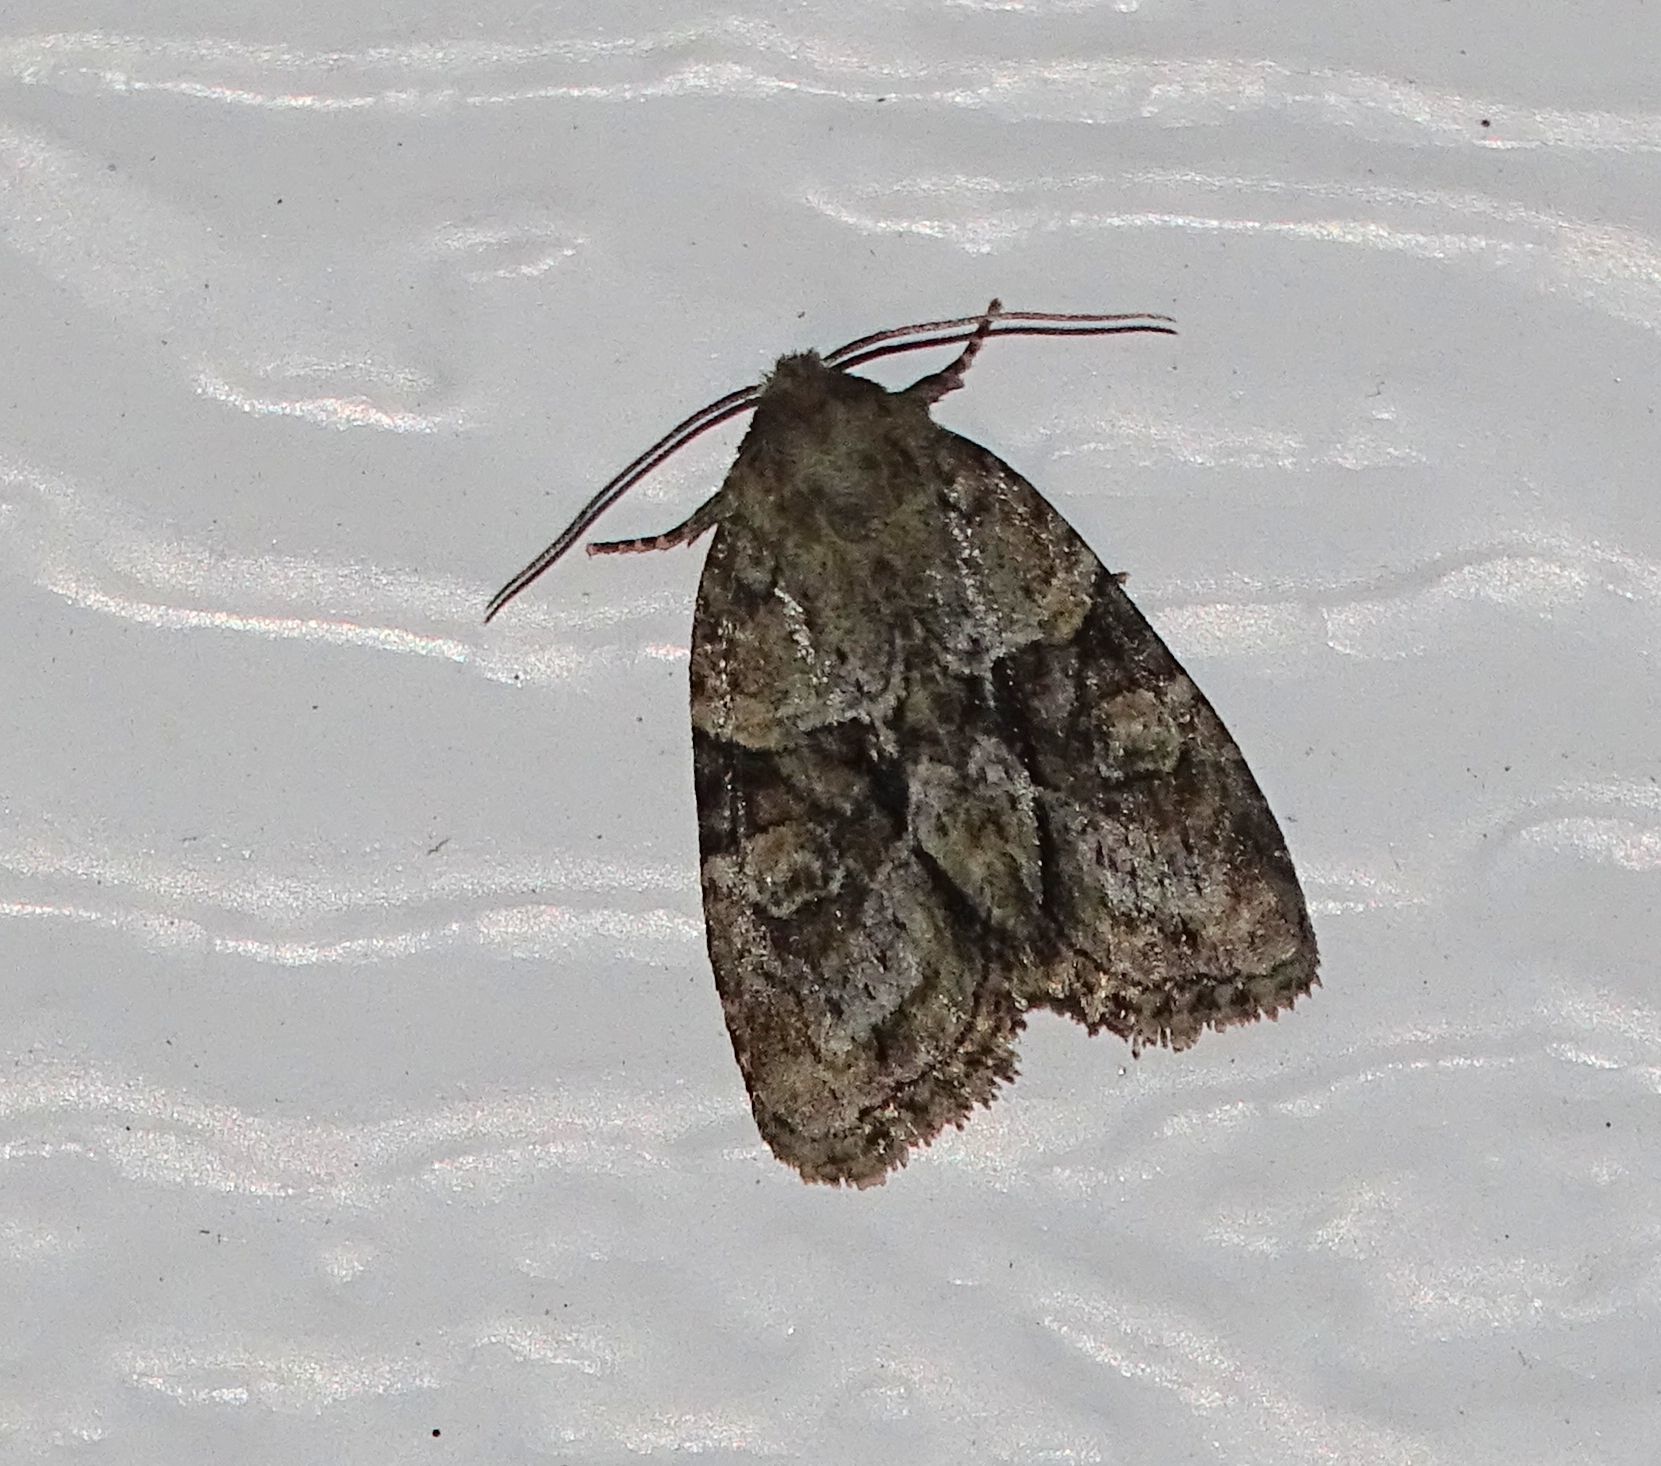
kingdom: Animalia
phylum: Arthropoda
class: Insecta
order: Lepidoptera
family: Noctuidae
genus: Neoligia
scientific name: Neoligia exhausta
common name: Exhausted brocade
